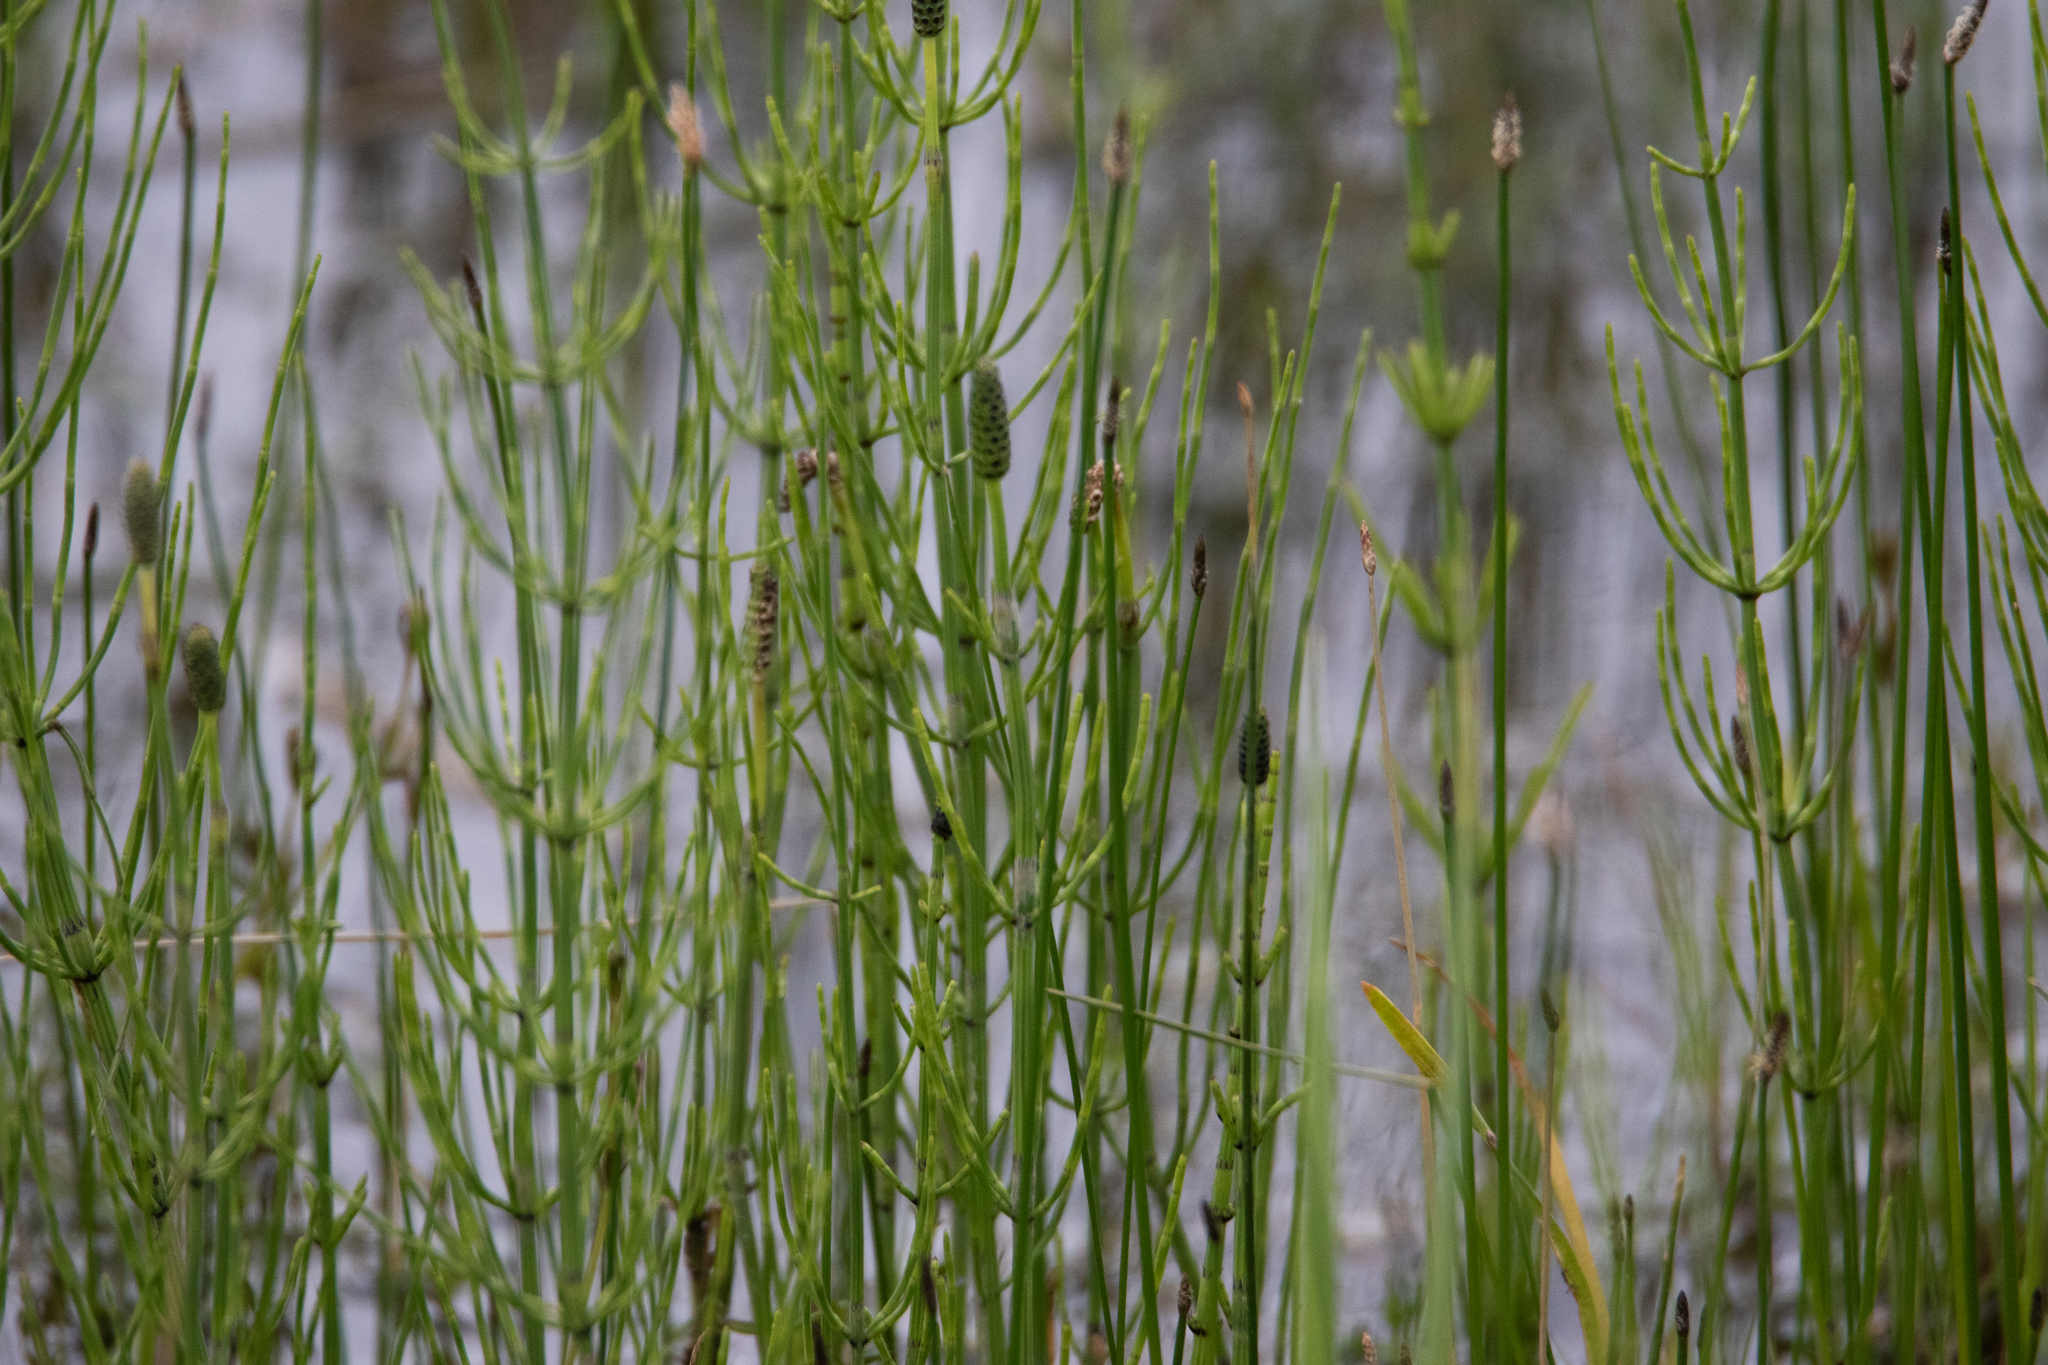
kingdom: Plantae
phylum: Tracheophyta
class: Polypodiopsida
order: Equisetales
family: Equisetaceae
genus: Equisetum
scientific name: Equisetum palustre
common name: Marsh horsetail
